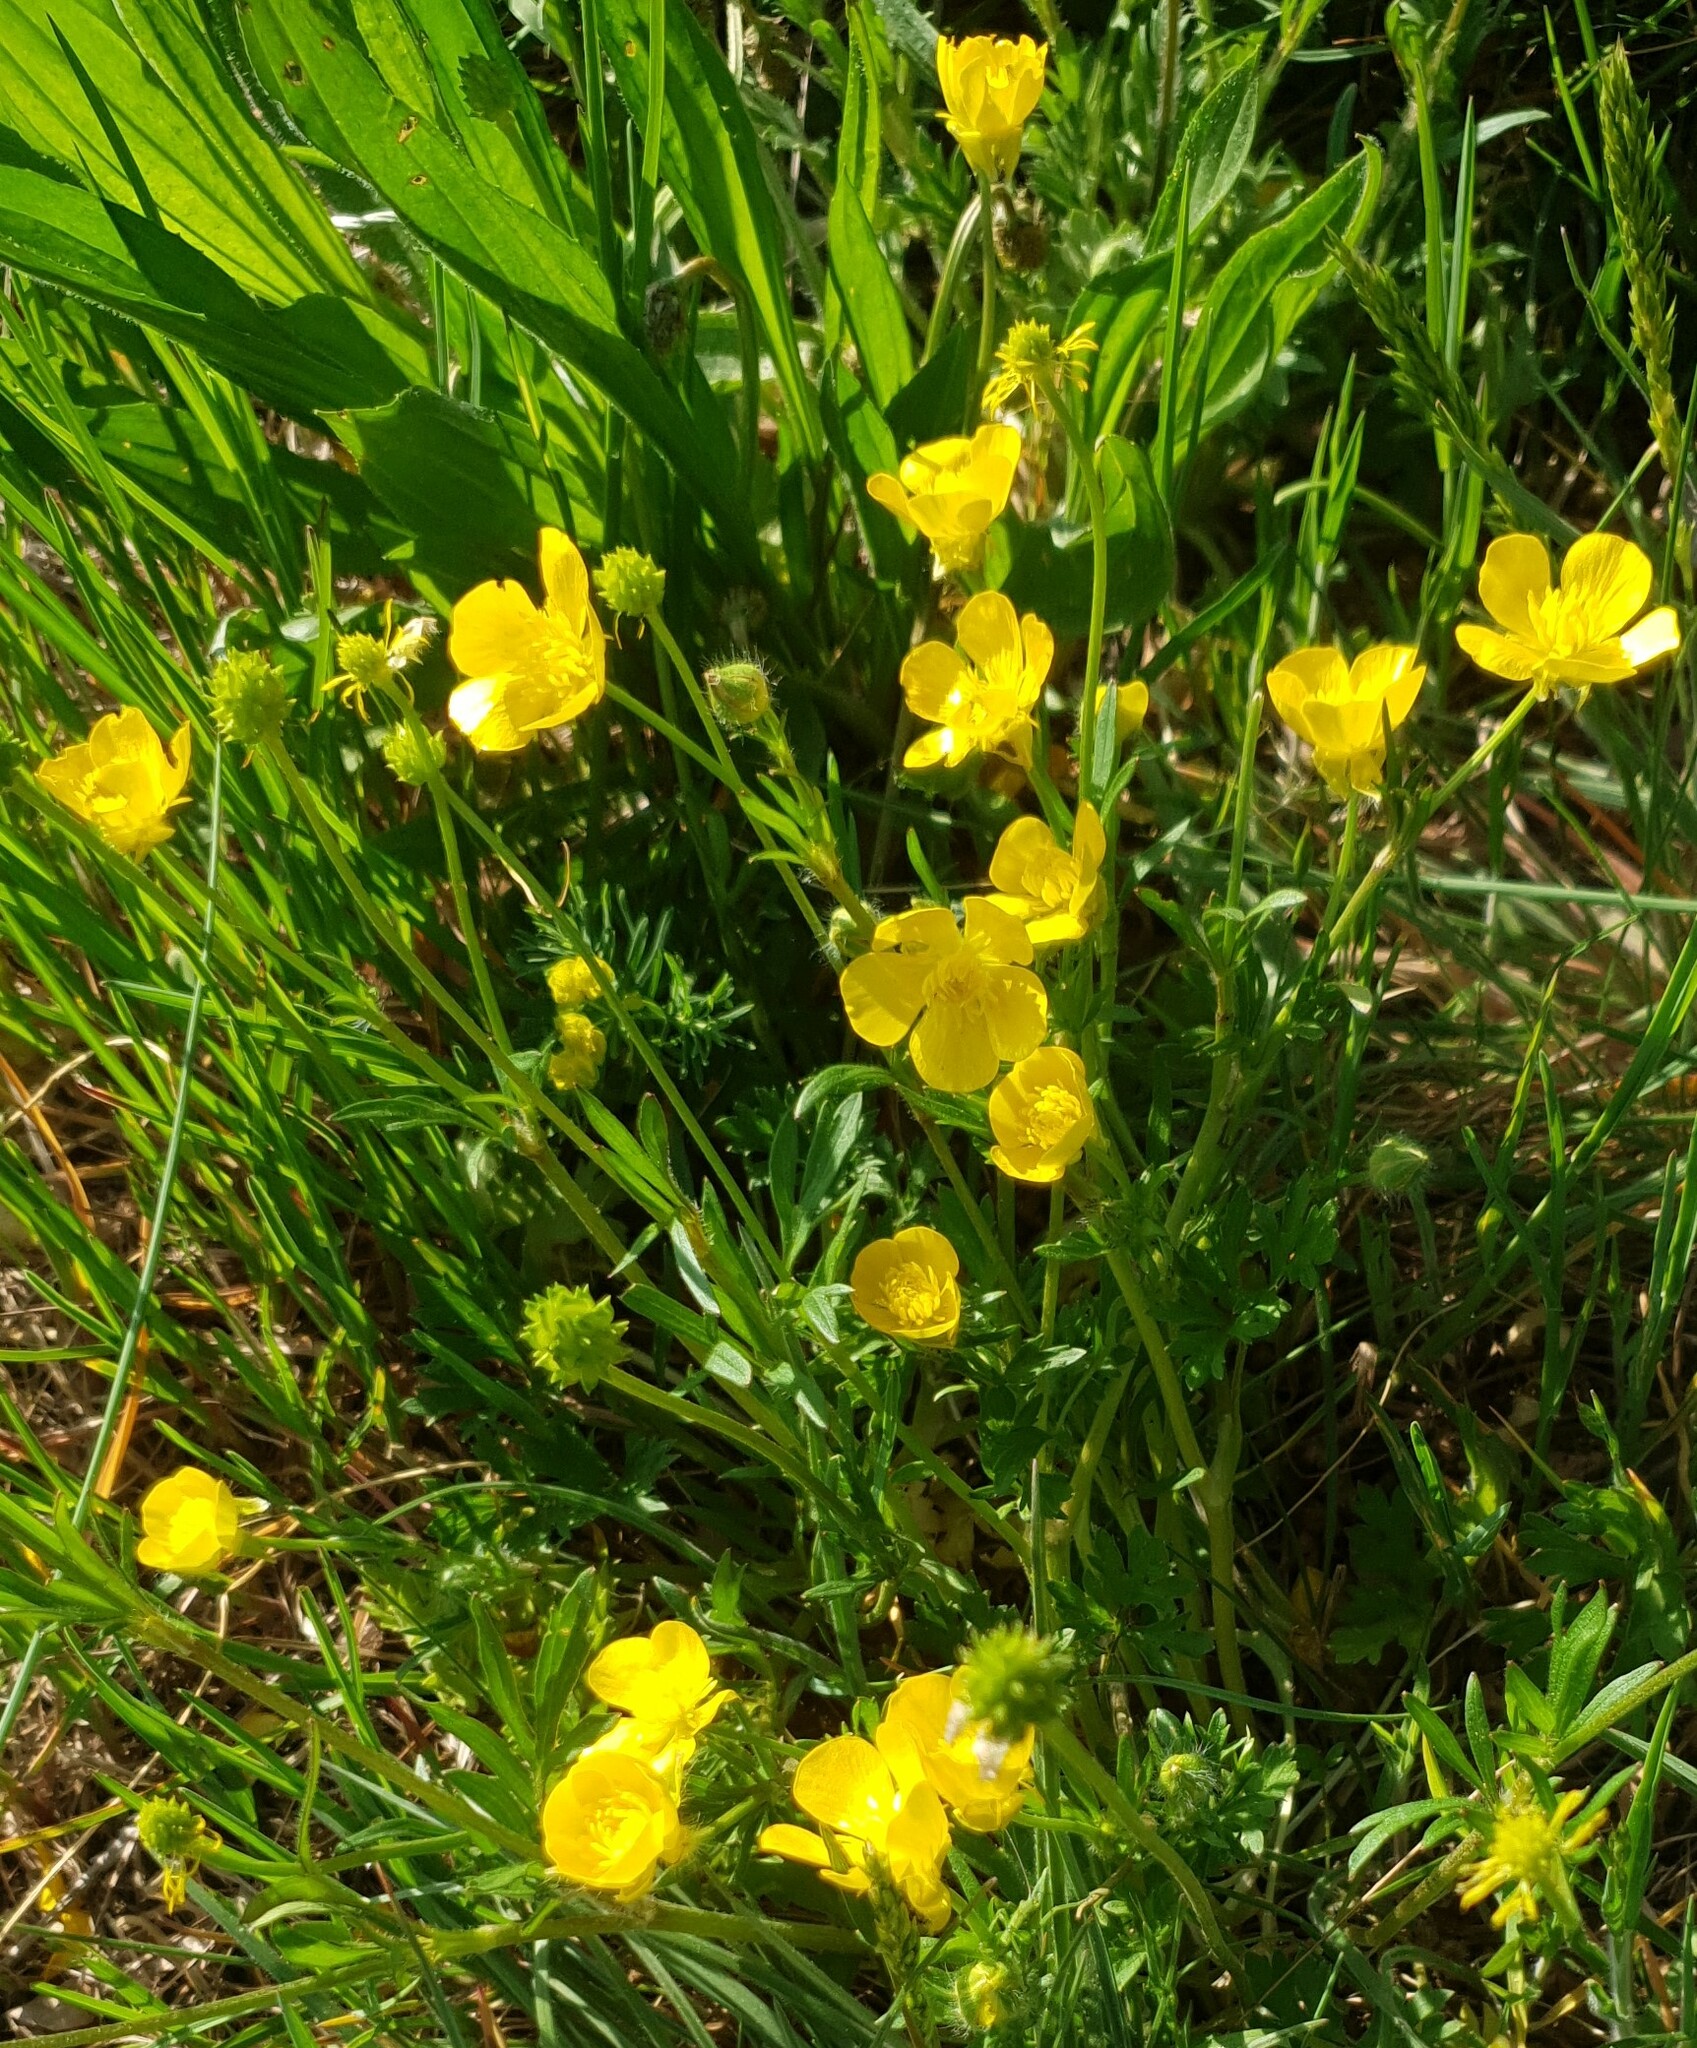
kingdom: Plantae
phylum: Tracheophyta
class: Magnoliopsida
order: Ranunculales
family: Ranunculaceae
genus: Ranunculus
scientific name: Ranunculus bulbosus
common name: Bulbous buttercup
